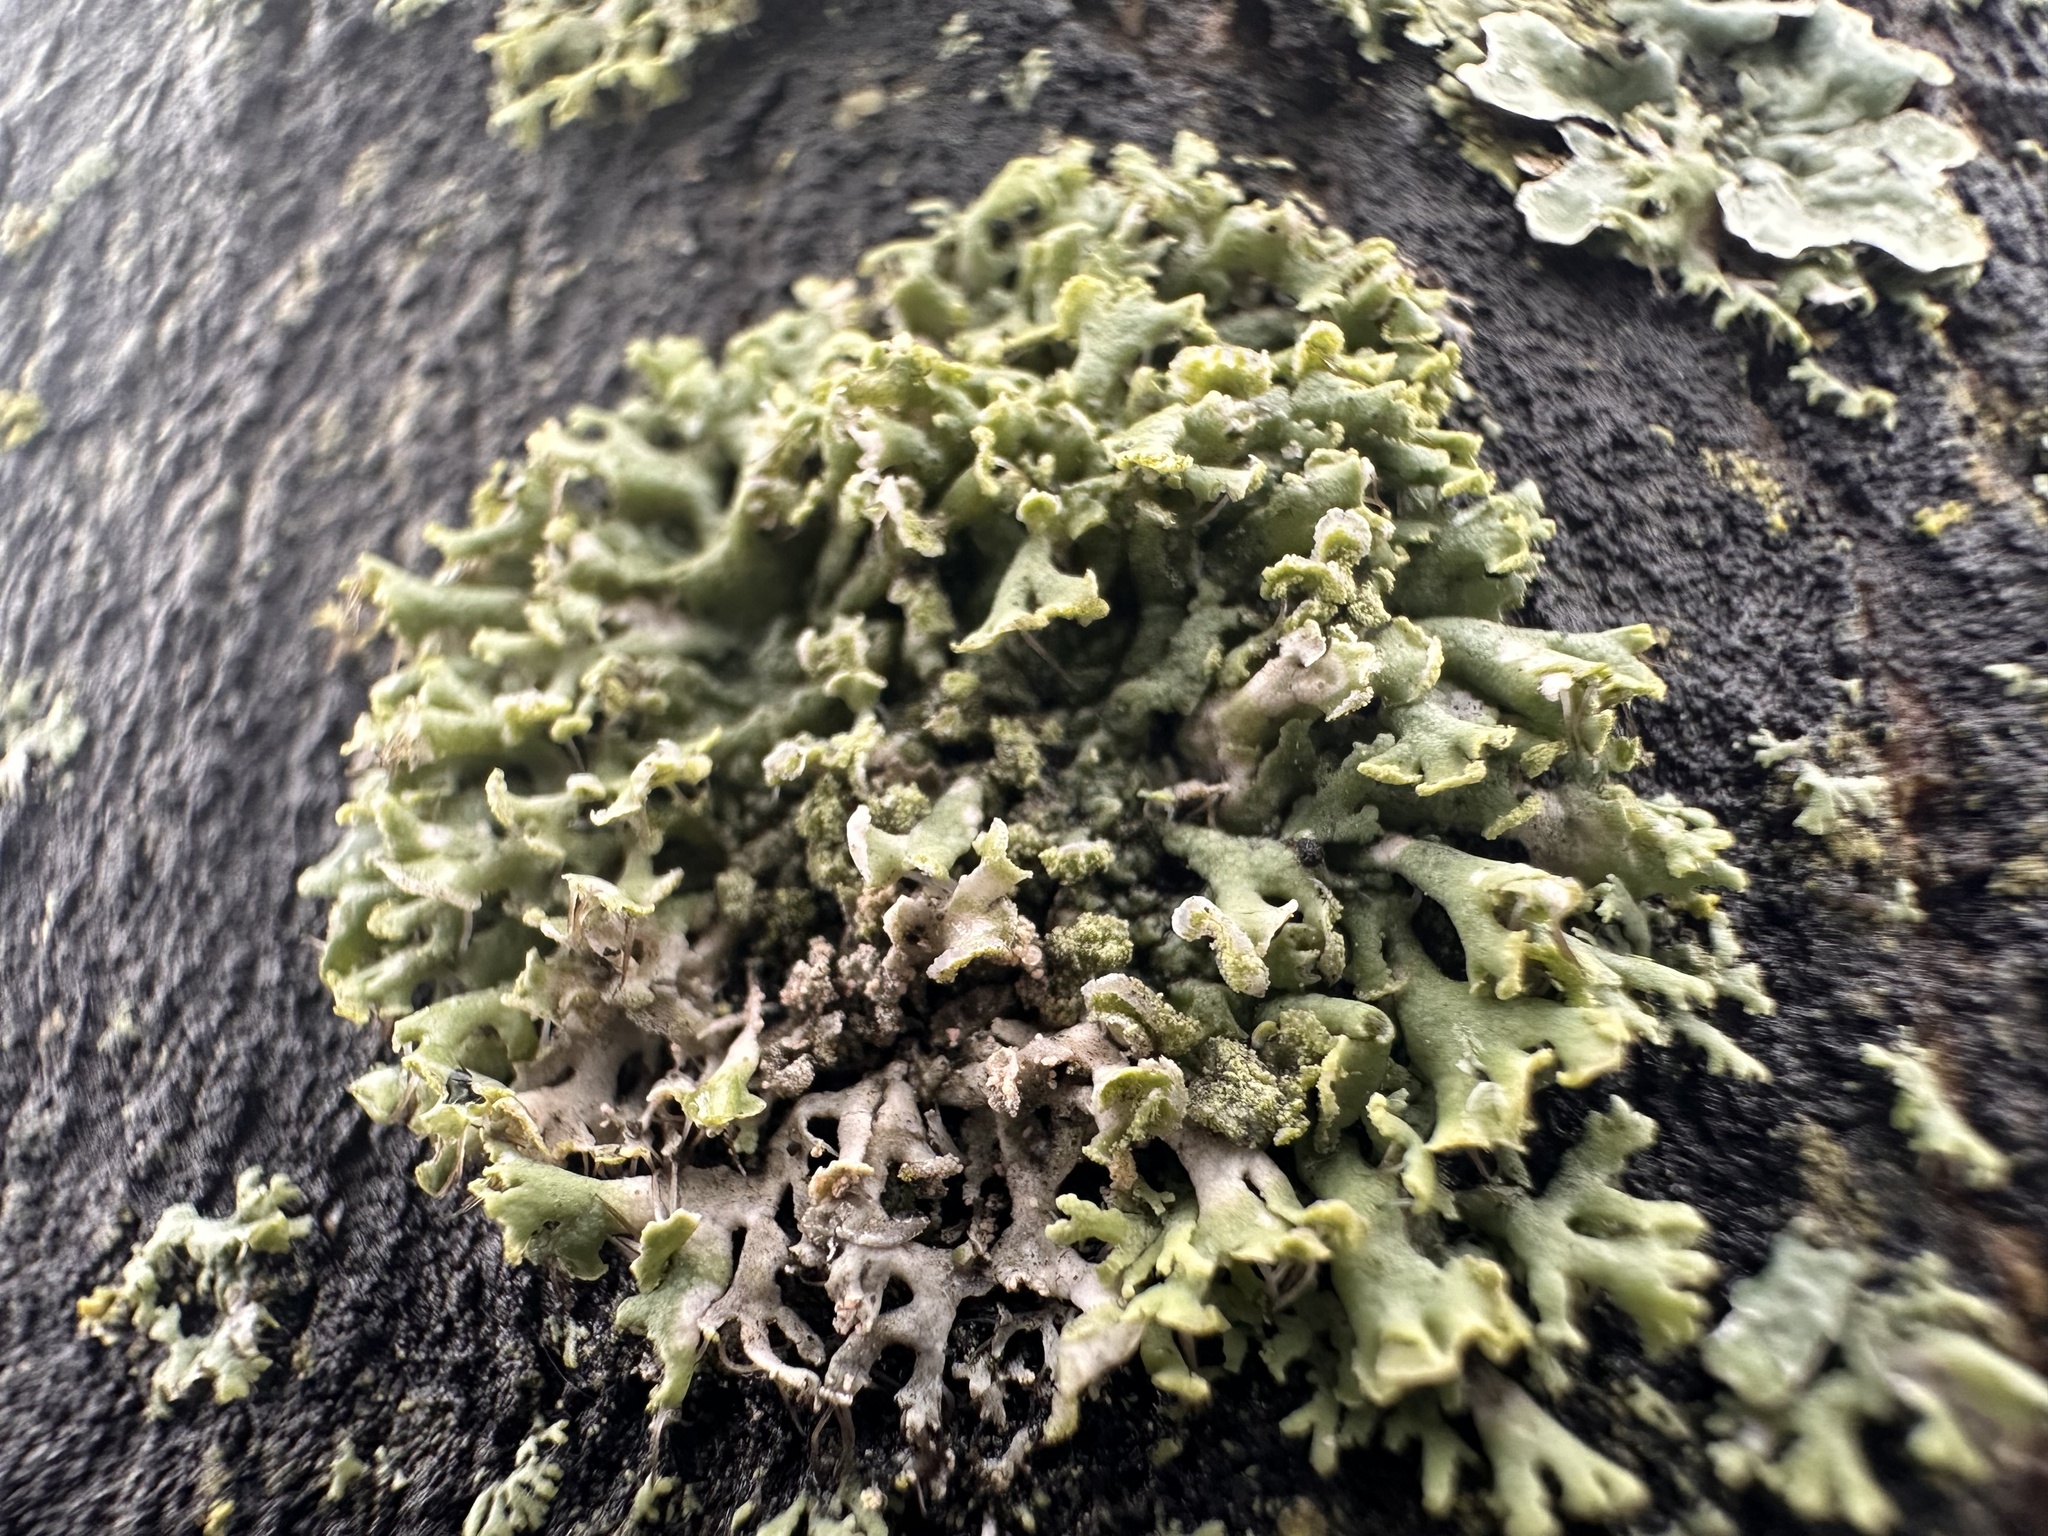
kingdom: Fungi
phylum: Ascomycota
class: Lecanoromycetes
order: Caliciales
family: Physciaceae
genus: Physcia
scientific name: Physcia tenella
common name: Fringed rosette lichen
